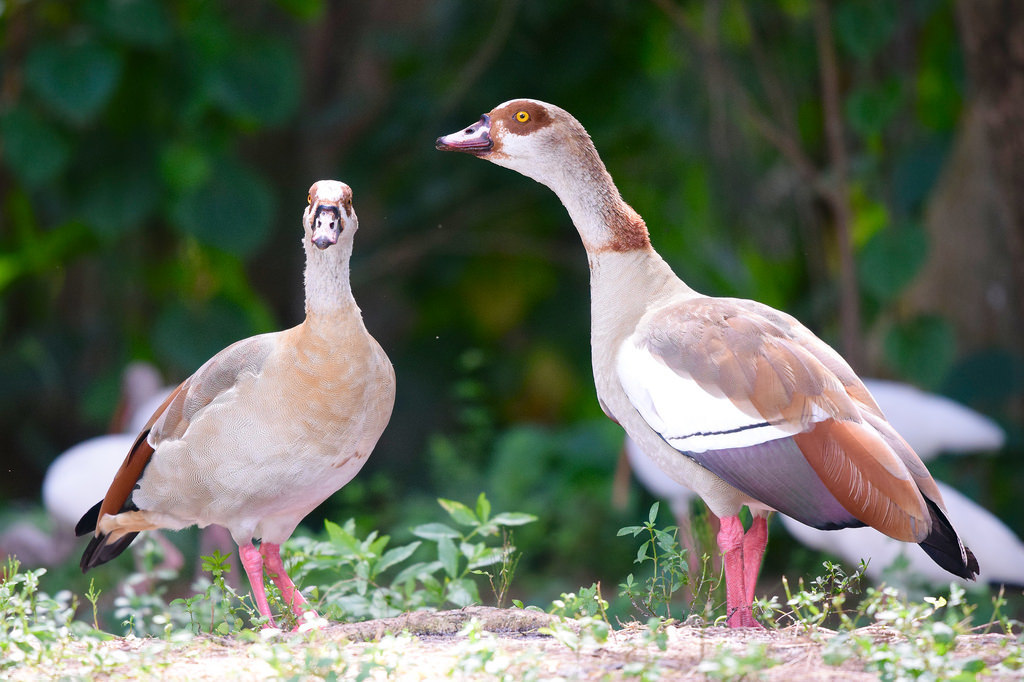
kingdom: Animalia
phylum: Chordata
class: Aves
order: Anseriformes
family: Anatidae
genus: Alopochen
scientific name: Alopochen aegyptiaca
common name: Egyptian goose
